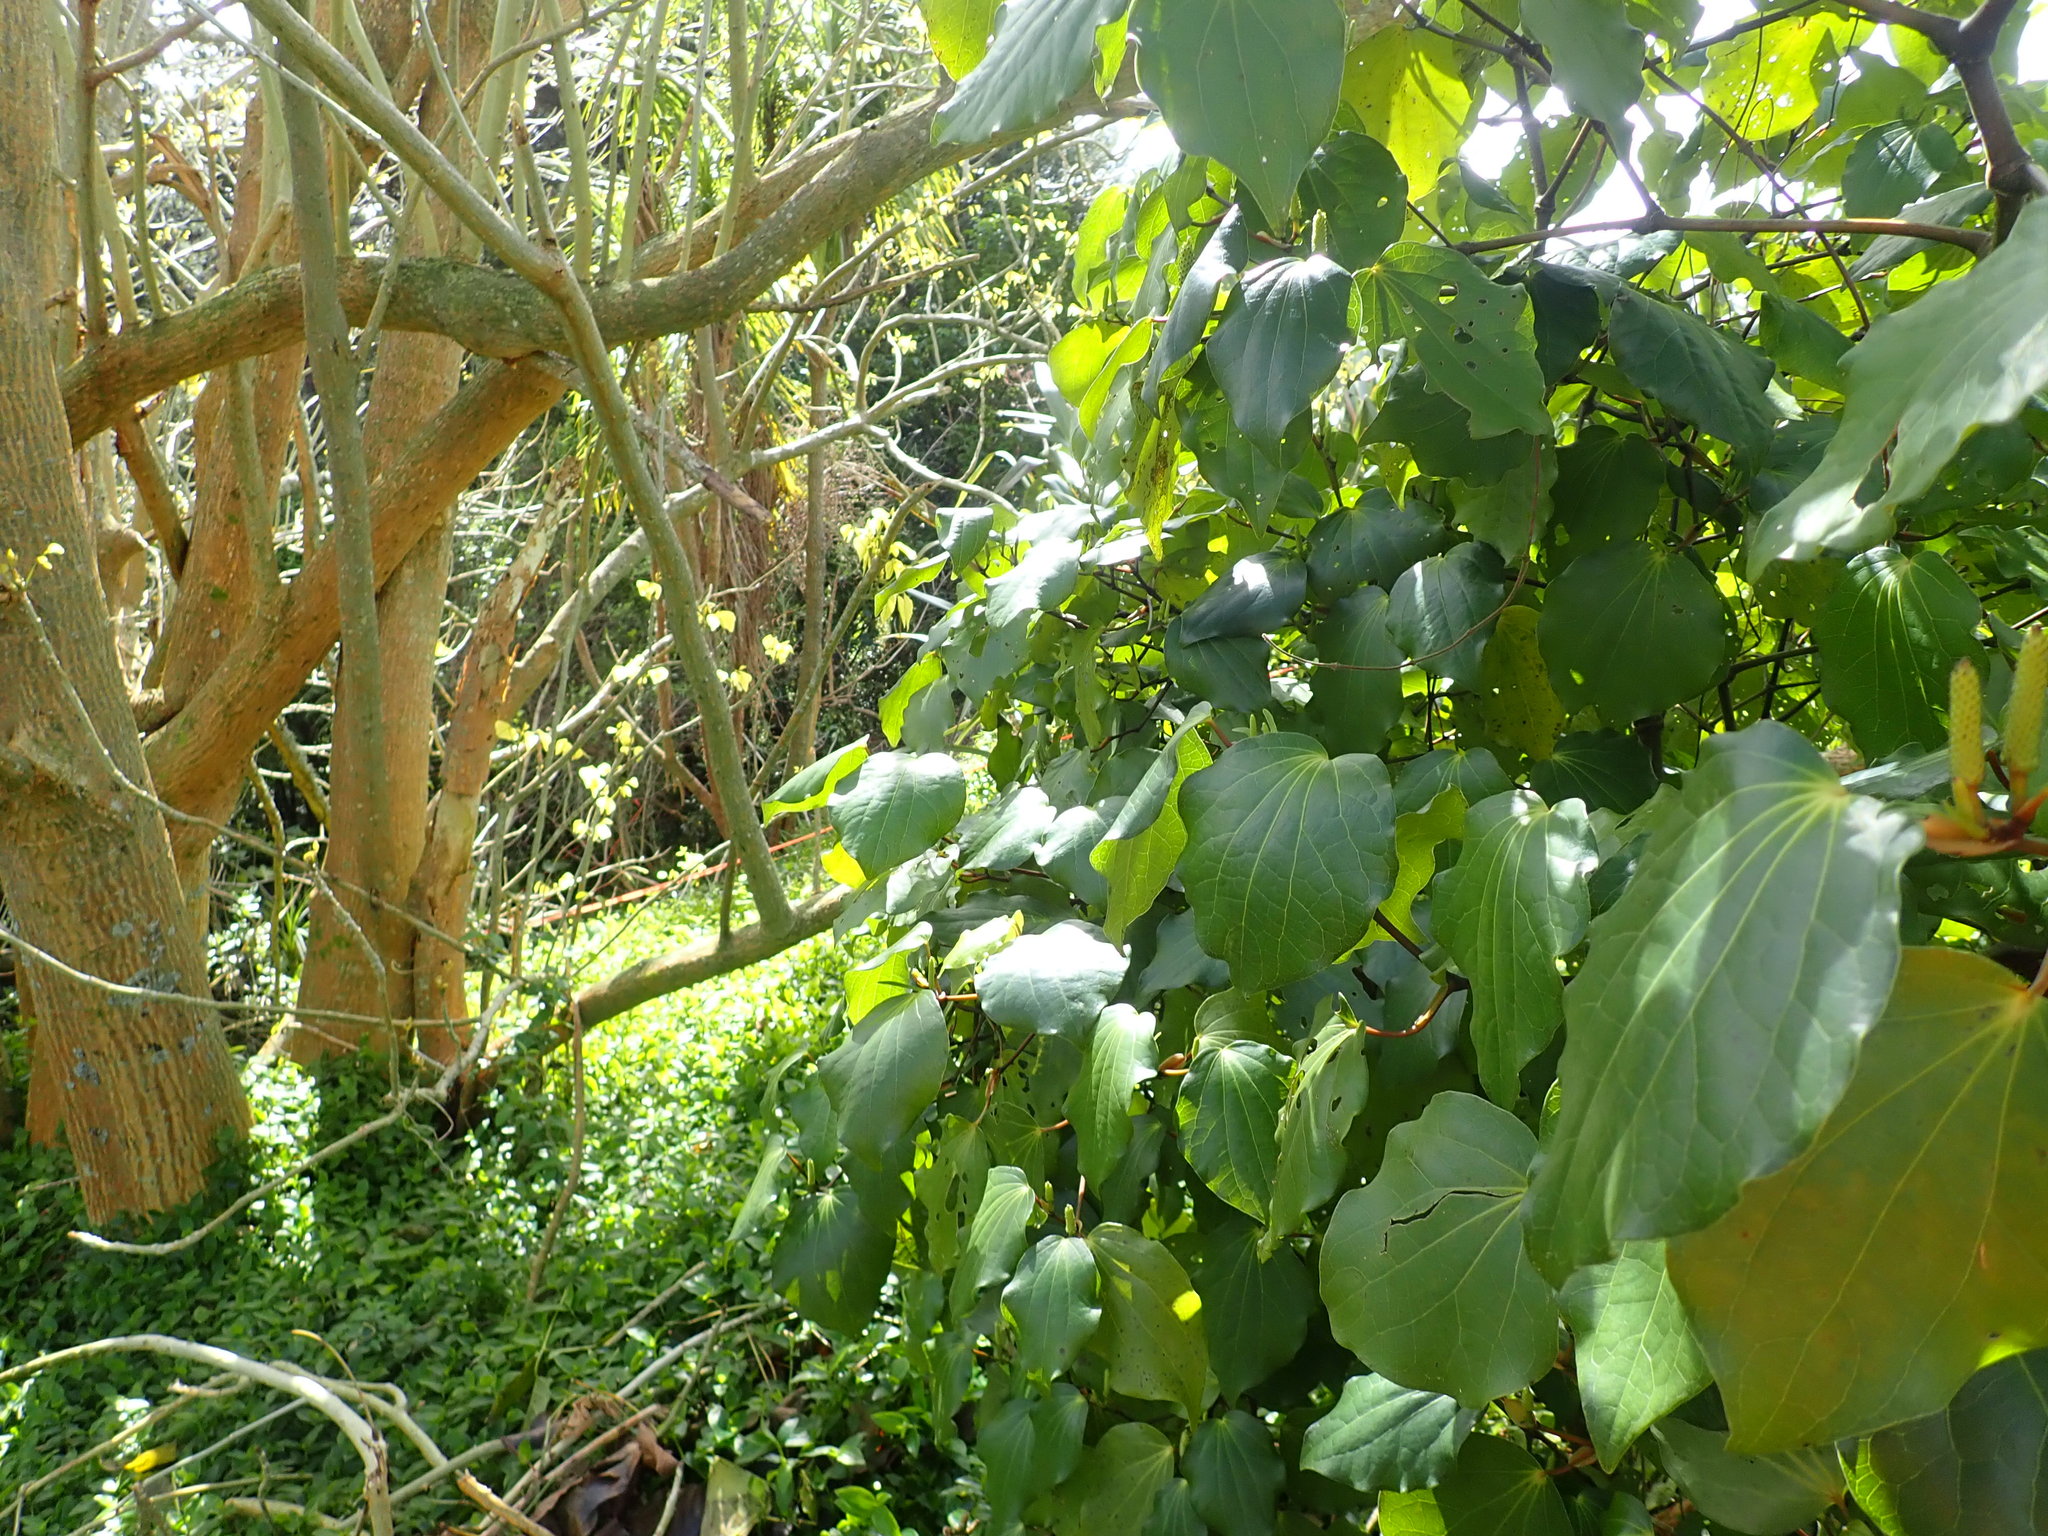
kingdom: Plantae
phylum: Tracheophyta
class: Magnoliopsida
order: Piperales
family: Piperaceae
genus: Macropiper
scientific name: Macropiper excelsum
